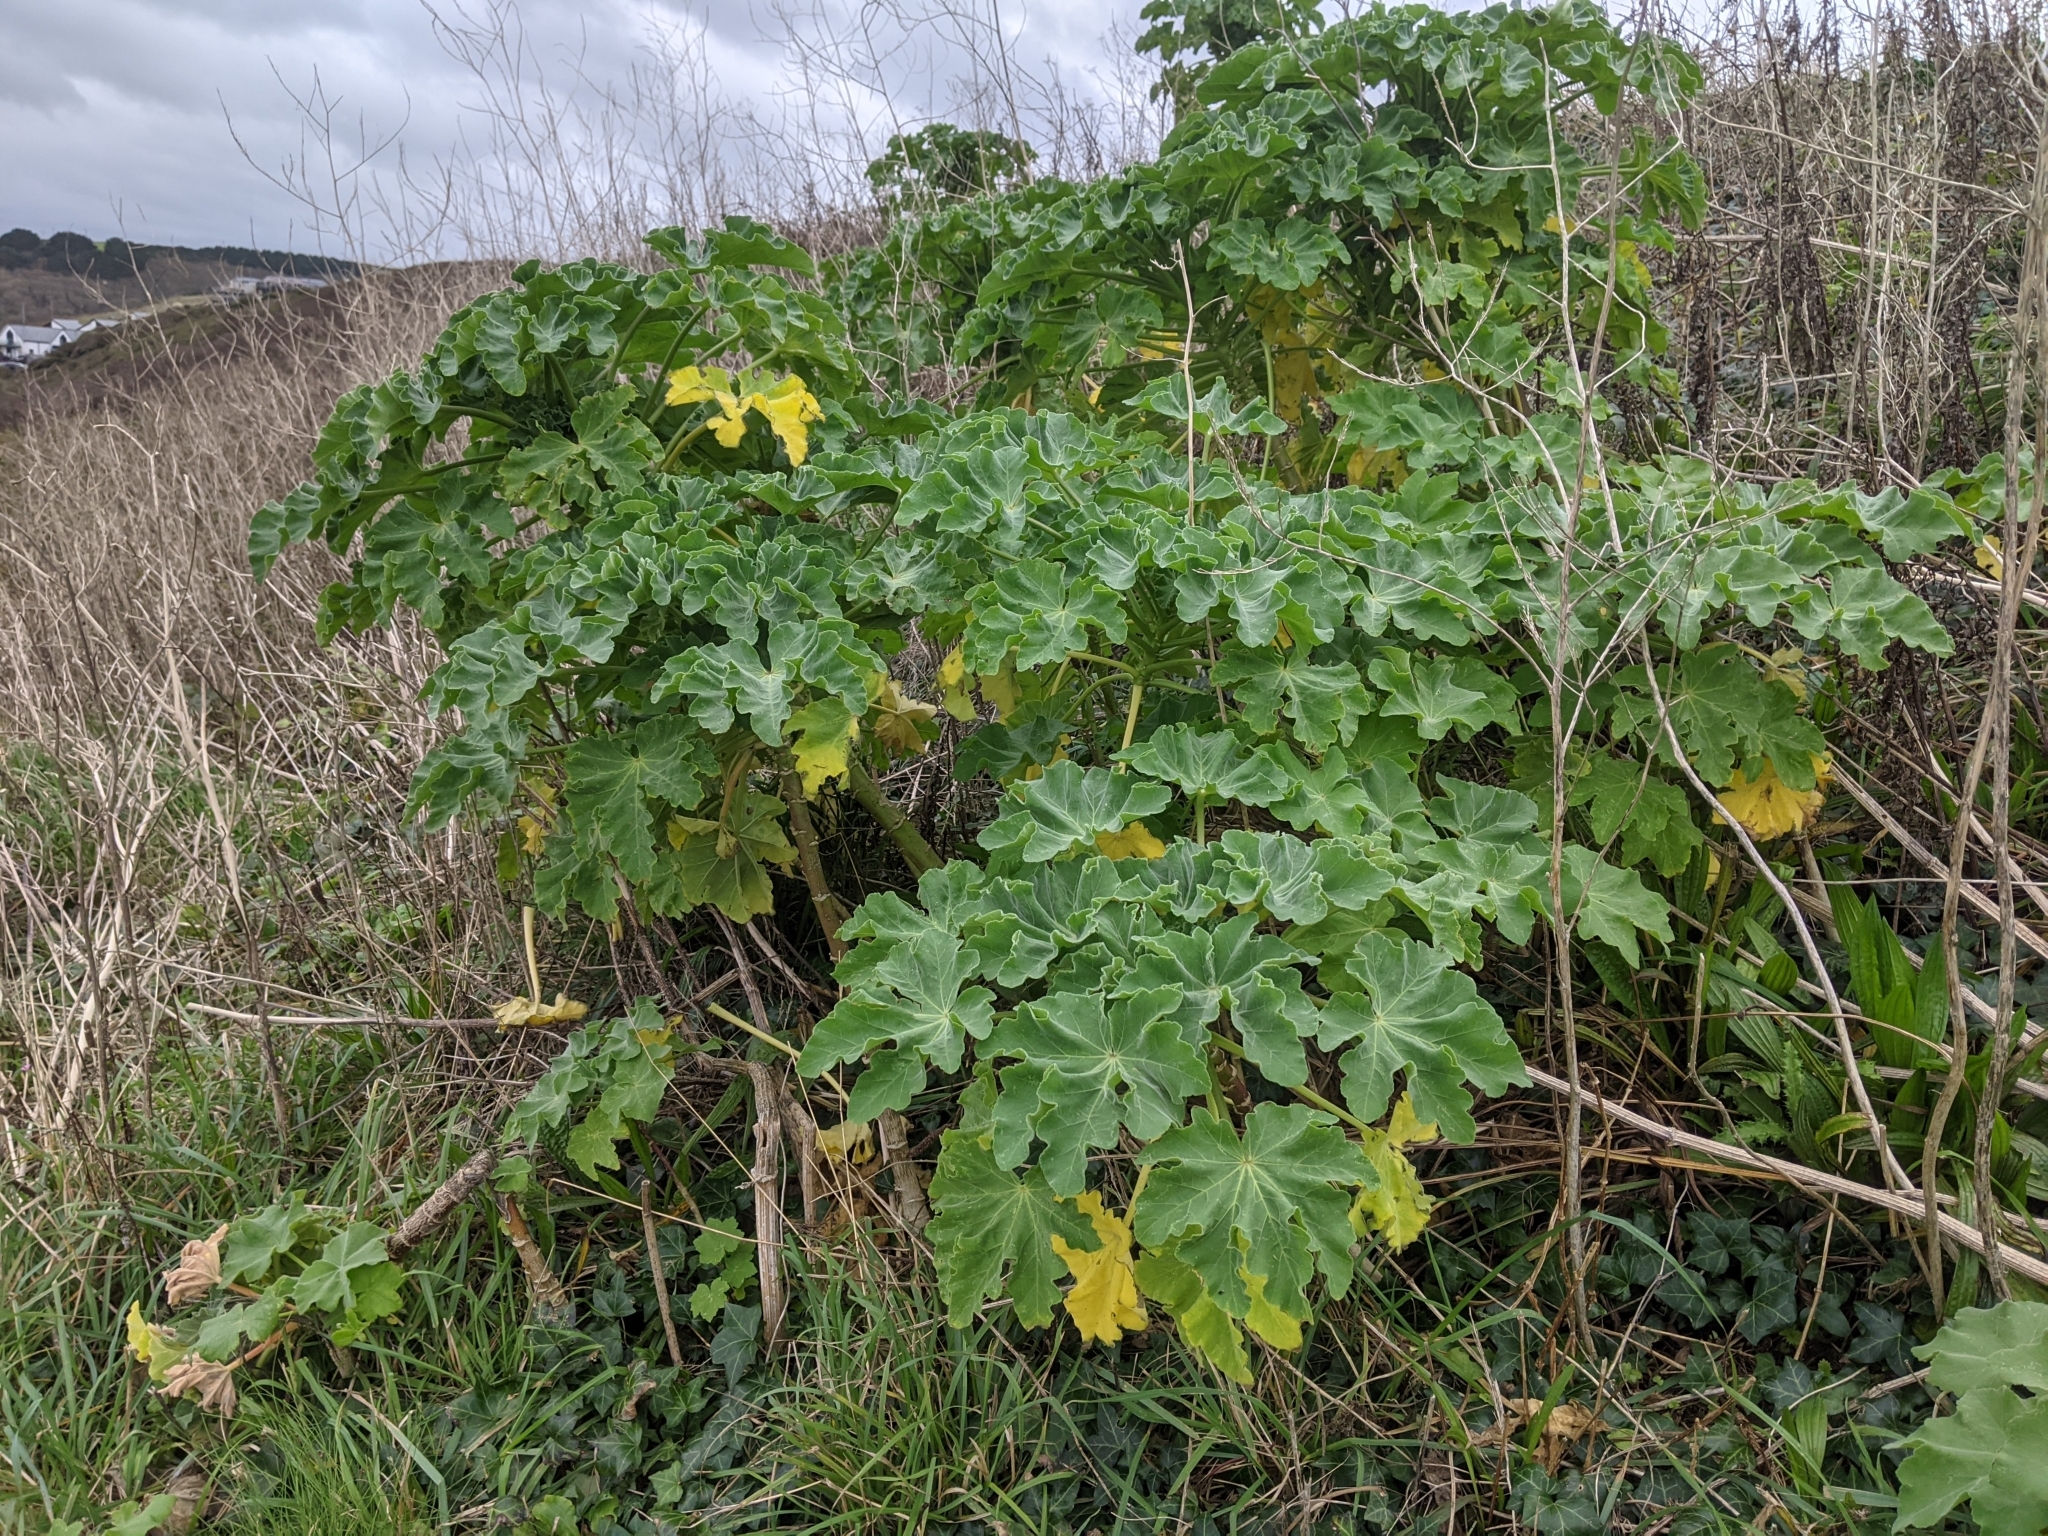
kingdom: Plantae
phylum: Tracheophyta
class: Magnoliopsida
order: Malvales
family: Malvaceae
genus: Malva
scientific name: Malva arborea
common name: Tree mallow
